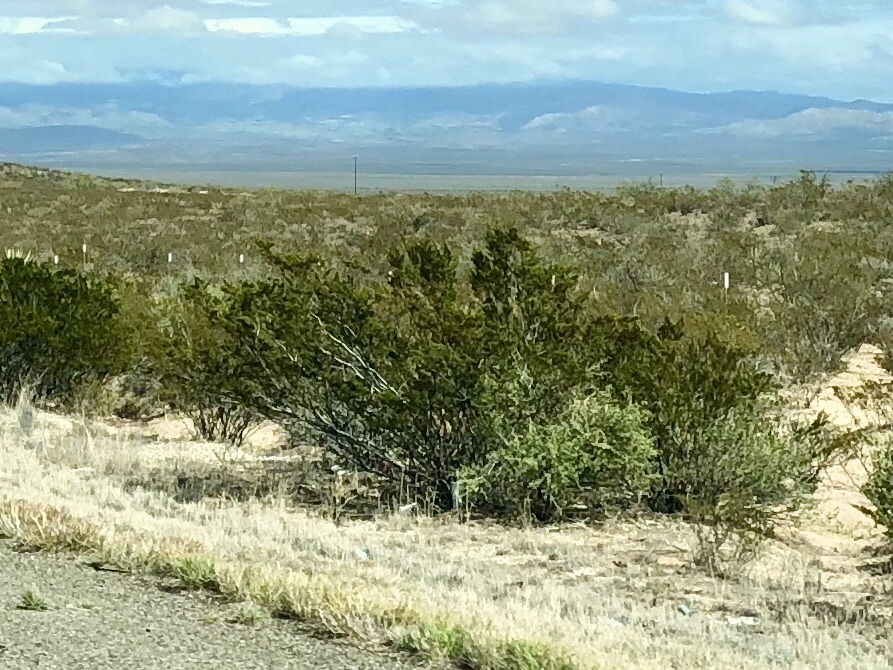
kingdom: Plantae
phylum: Tracheophyta
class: Magnoliopsida
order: Zygophyllales
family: Zygophyllaceae
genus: Larrea
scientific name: Larrea tridentata
